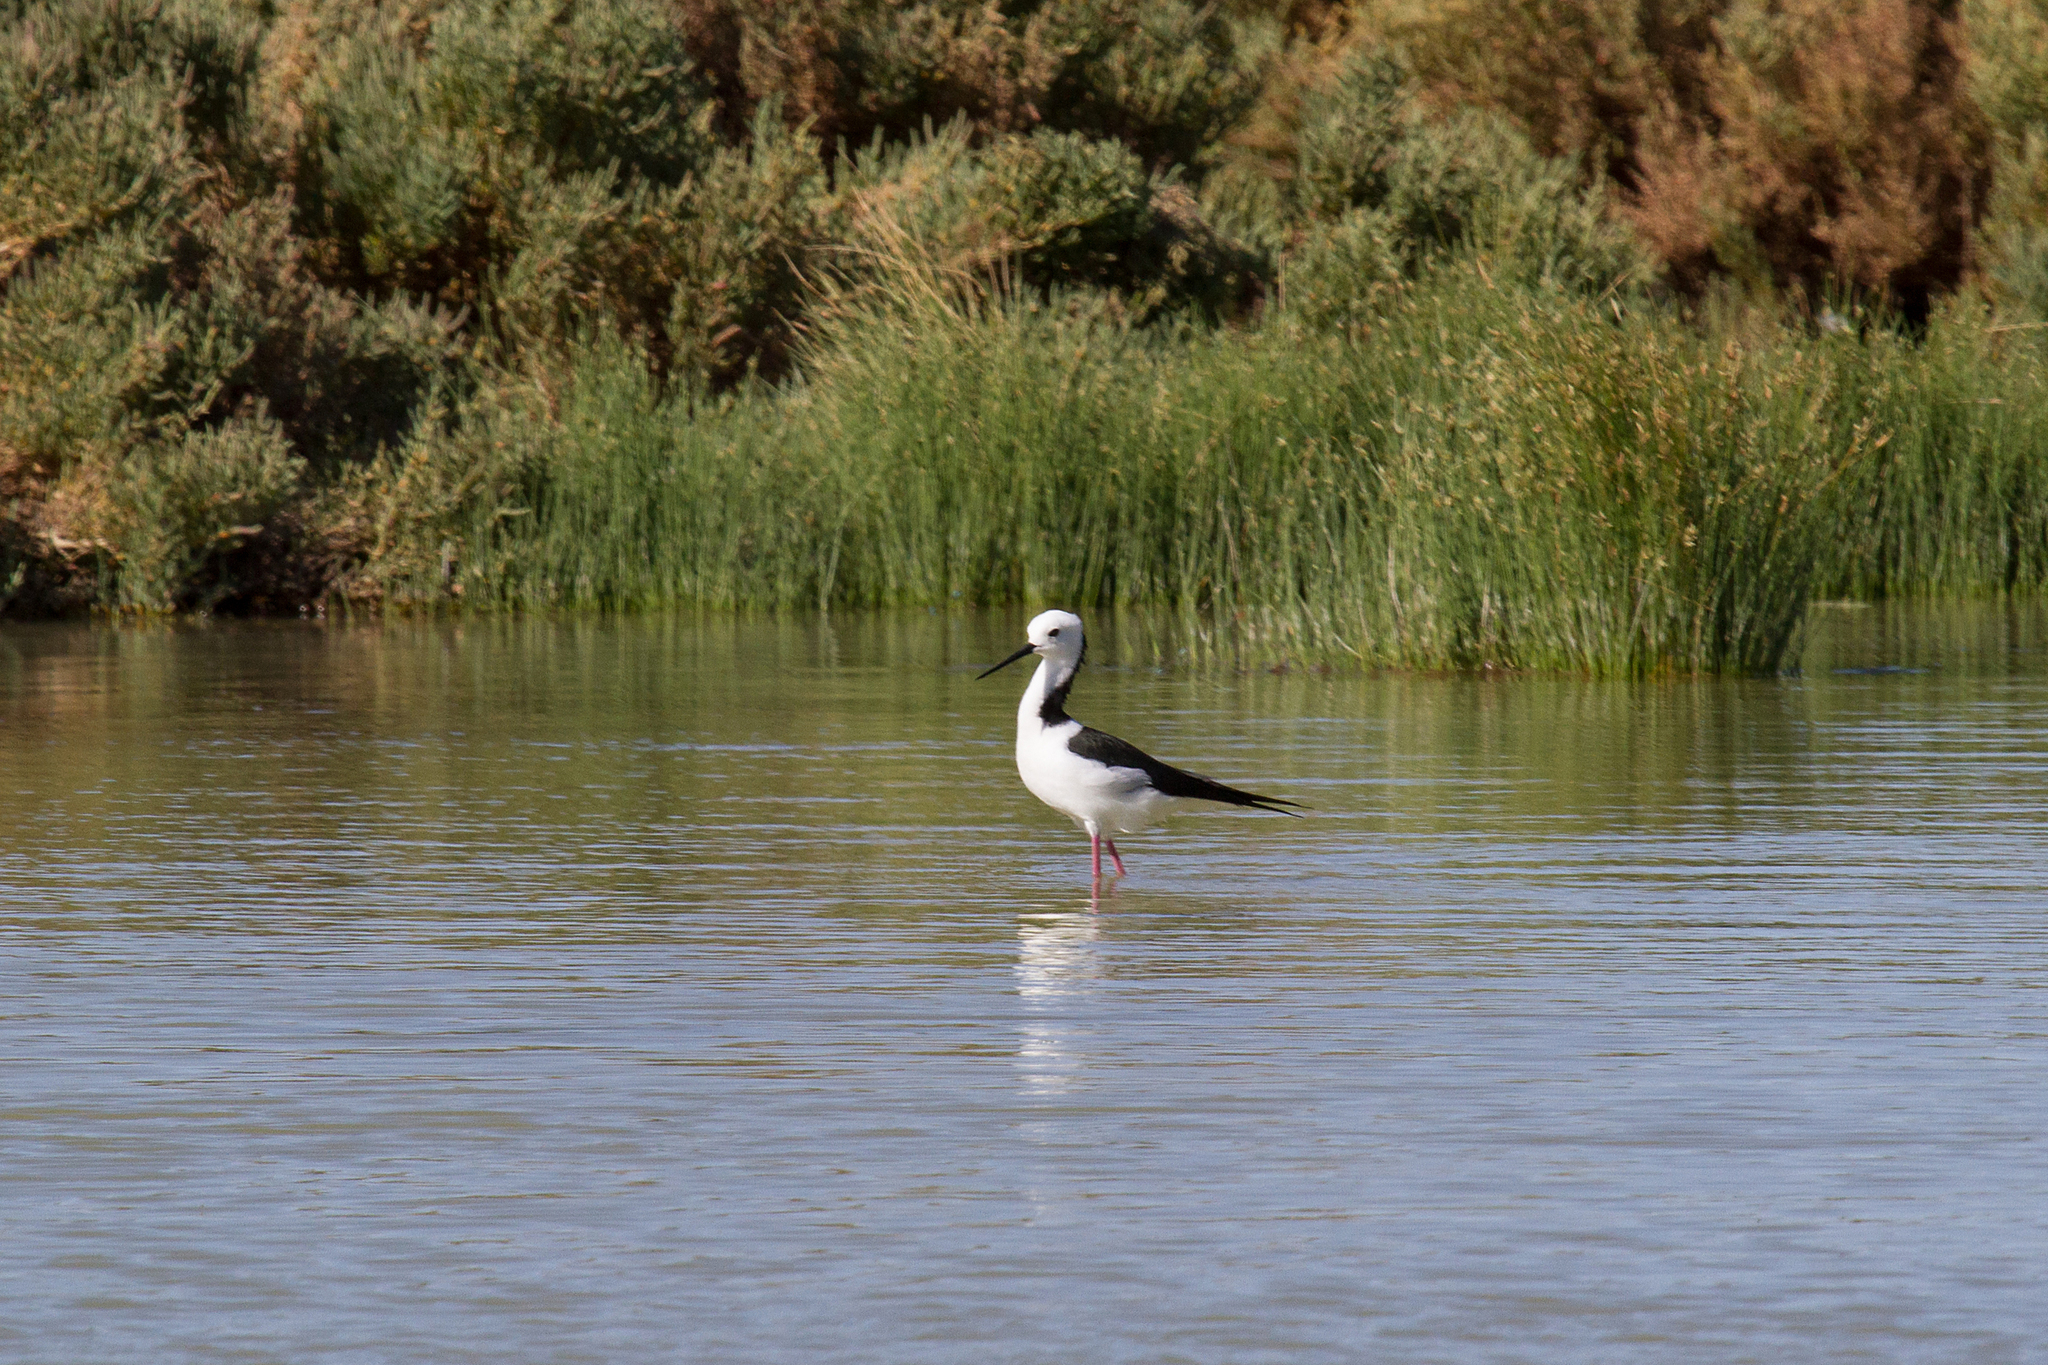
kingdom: Animalia
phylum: Chordata
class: Aves
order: Charadriiformes
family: Recurvirostridae
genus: Himantopus
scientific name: Himantopus leucocephalus
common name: White-headed stilt
